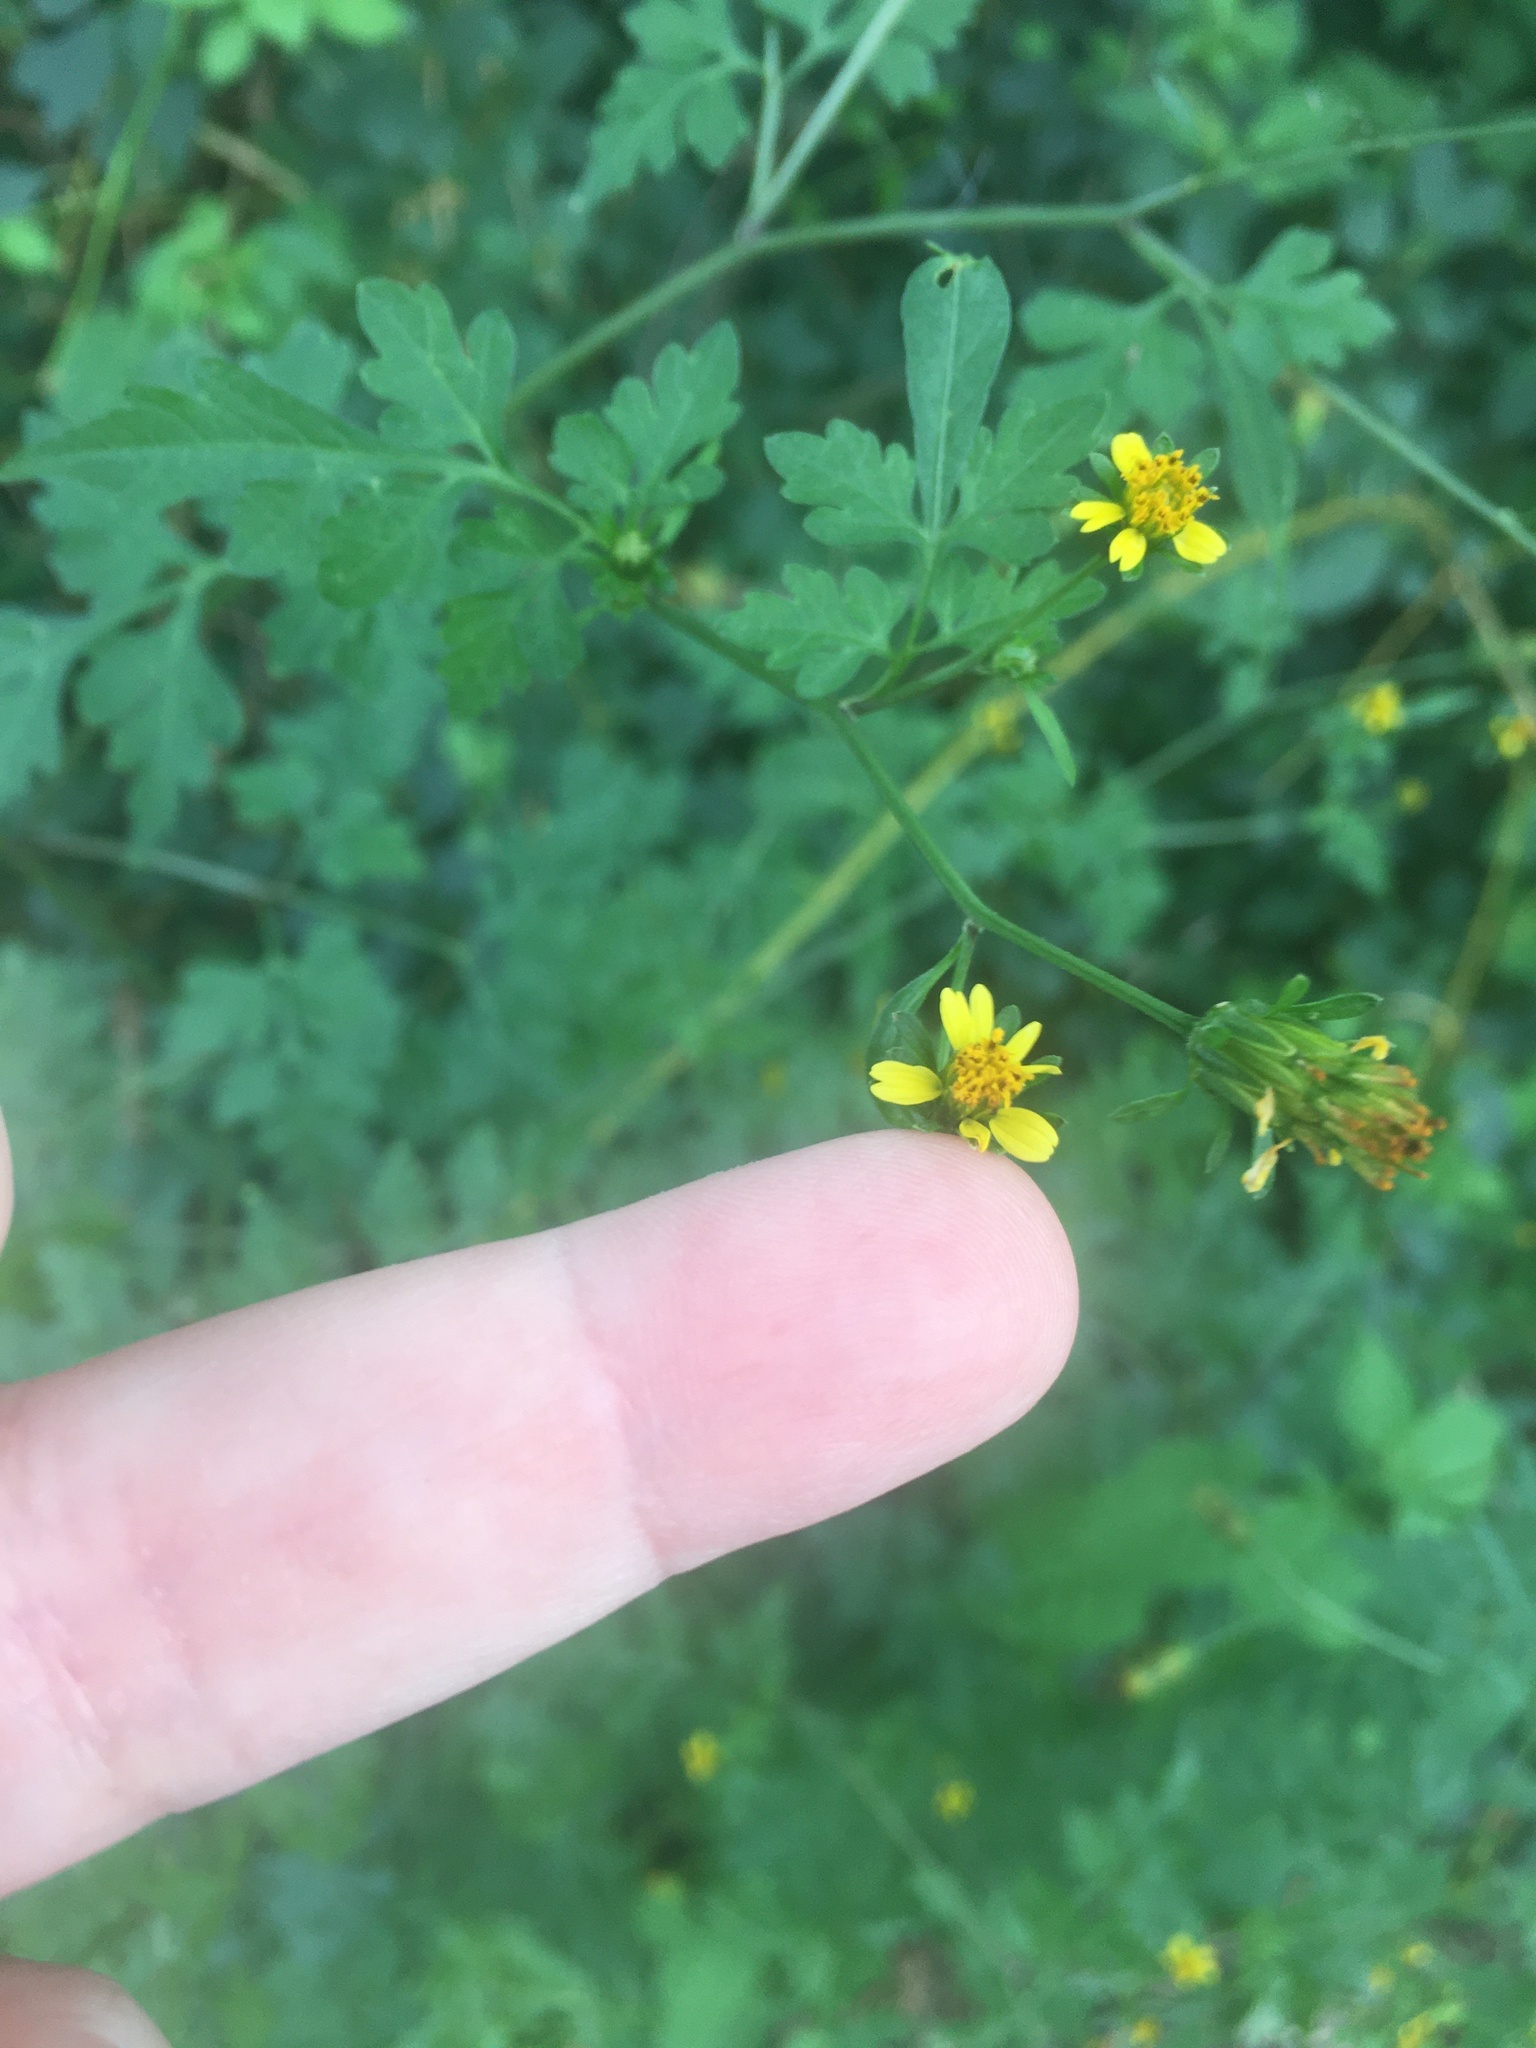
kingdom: Plantae
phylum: Tracheophyta
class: Magnoliopsida
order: Asterales
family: Asteraceae
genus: Bidens
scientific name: Bidens bipinnata
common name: Spanish-needles
